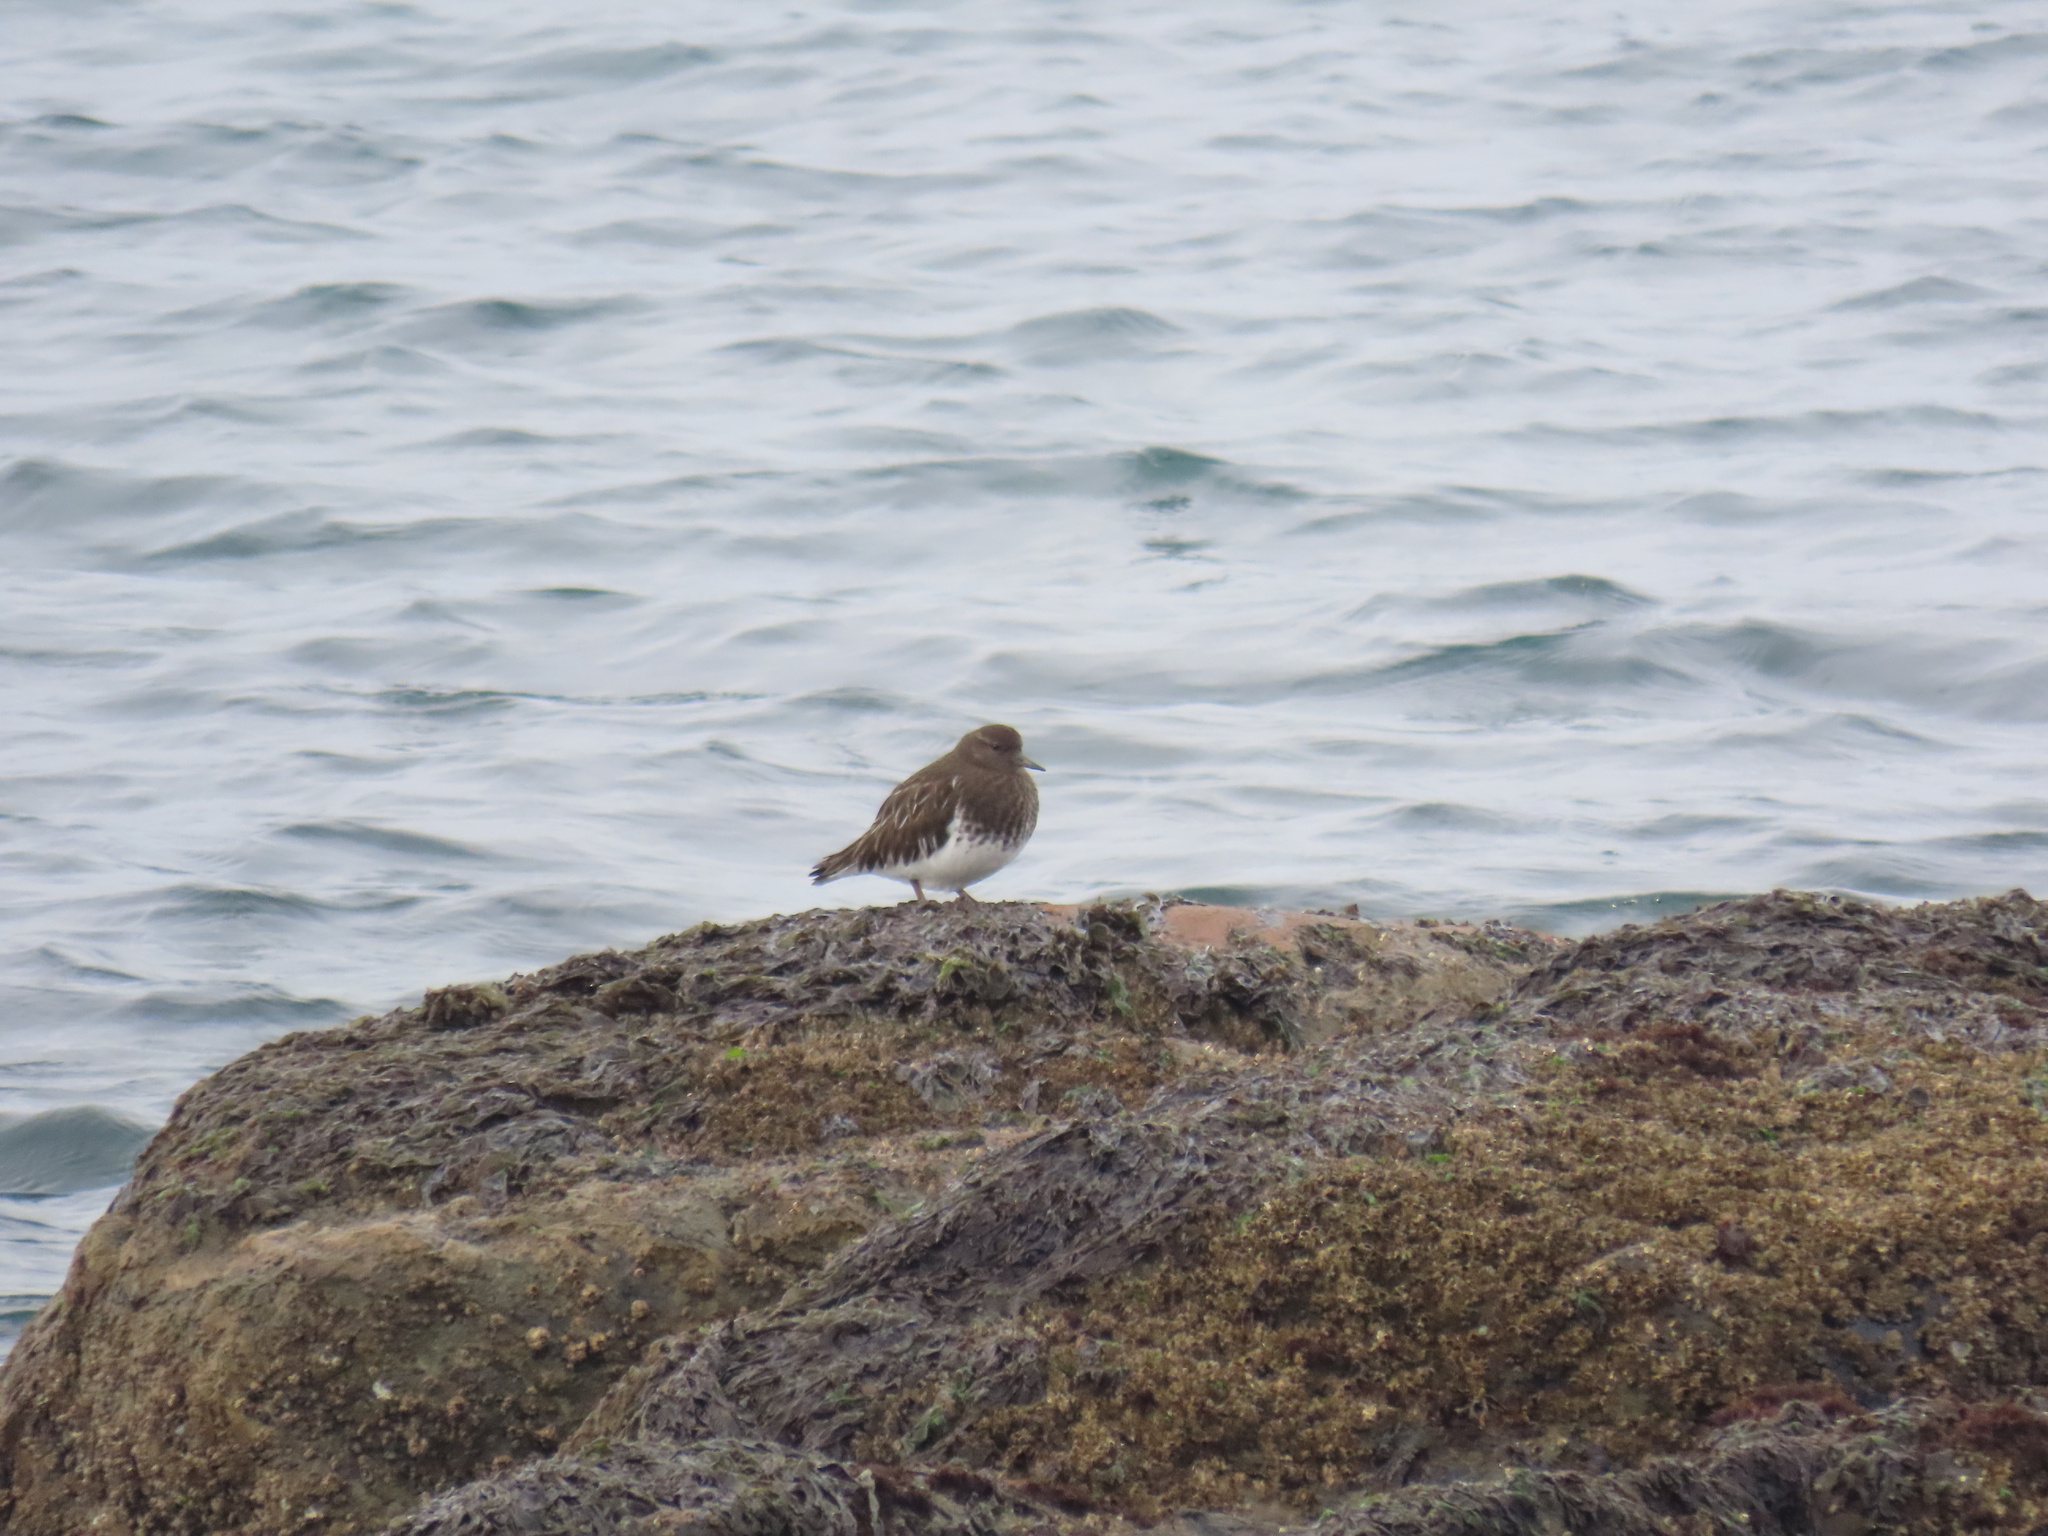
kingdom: Animalia
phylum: Chordata
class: Aves
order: Charadriiformes
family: Scolopacidae
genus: Arenaria
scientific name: Arenaria melanocephala
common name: Black turnstone
